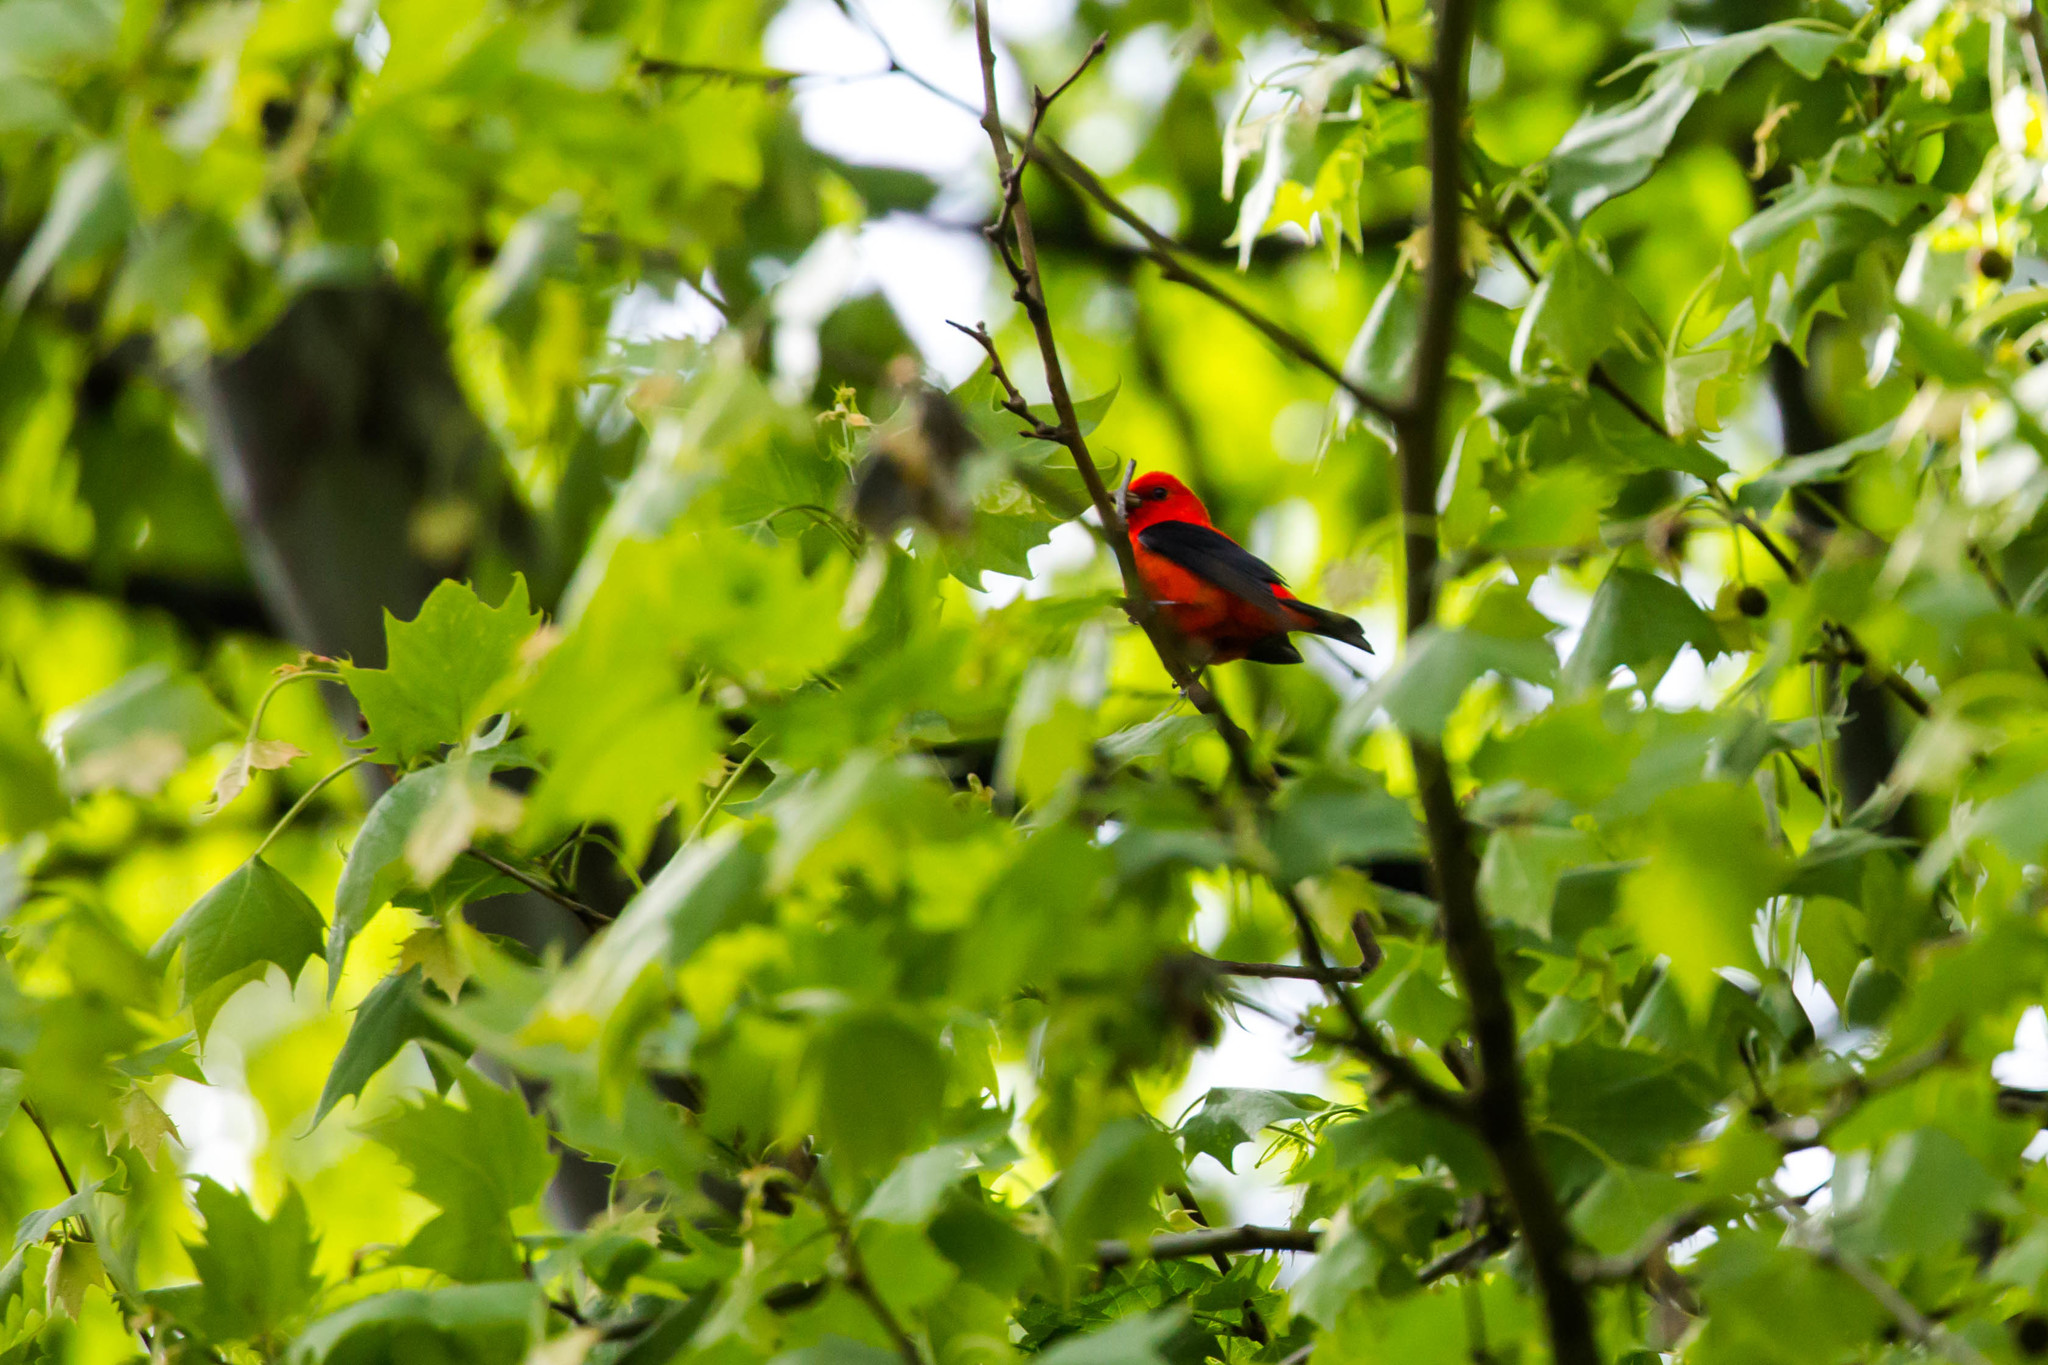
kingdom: Animalia
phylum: Chordata
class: Aves
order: Passeriformes
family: Cardinalidae
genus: Piranga
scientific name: Piranga olivacea
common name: Scarlet tanager
